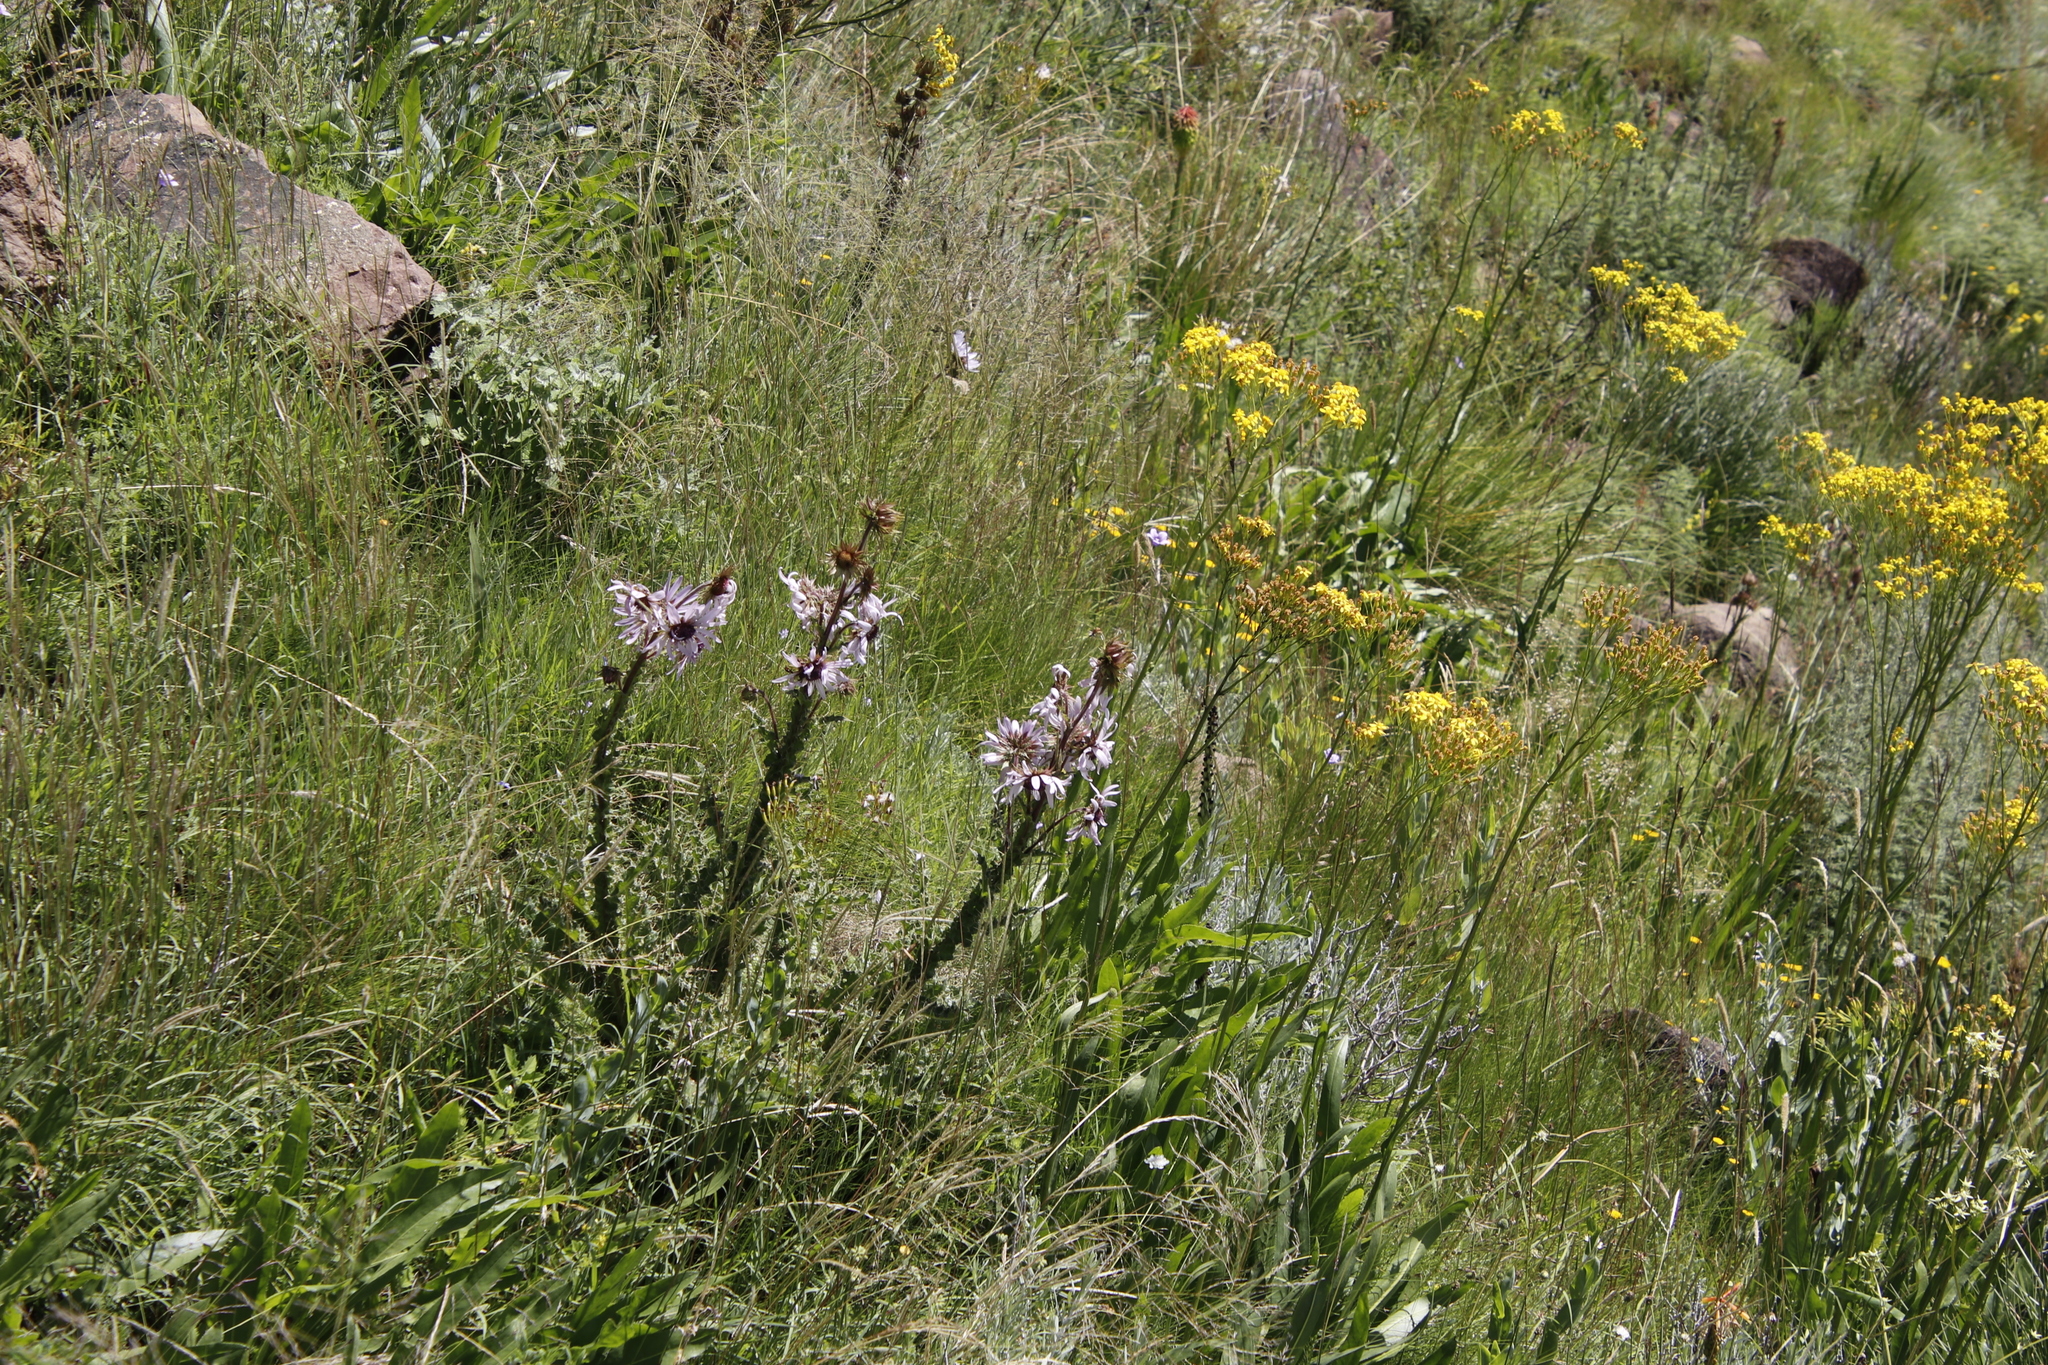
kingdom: Plantae
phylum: Tracheophyta
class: Magnoliopsida
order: Asterales
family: Asteraceae
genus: Berkheya
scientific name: Berkheya purpurea
